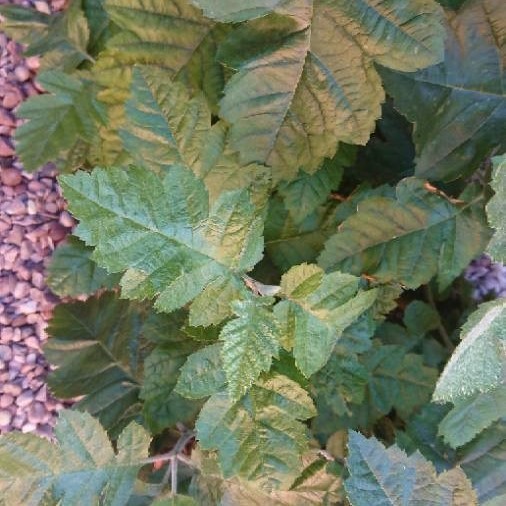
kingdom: Plantae
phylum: Tracheophyta
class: Magnoliopsida
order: Rosales
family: Rosaceae
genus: Hedlundia
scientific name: Hedlundia thuringiaca
